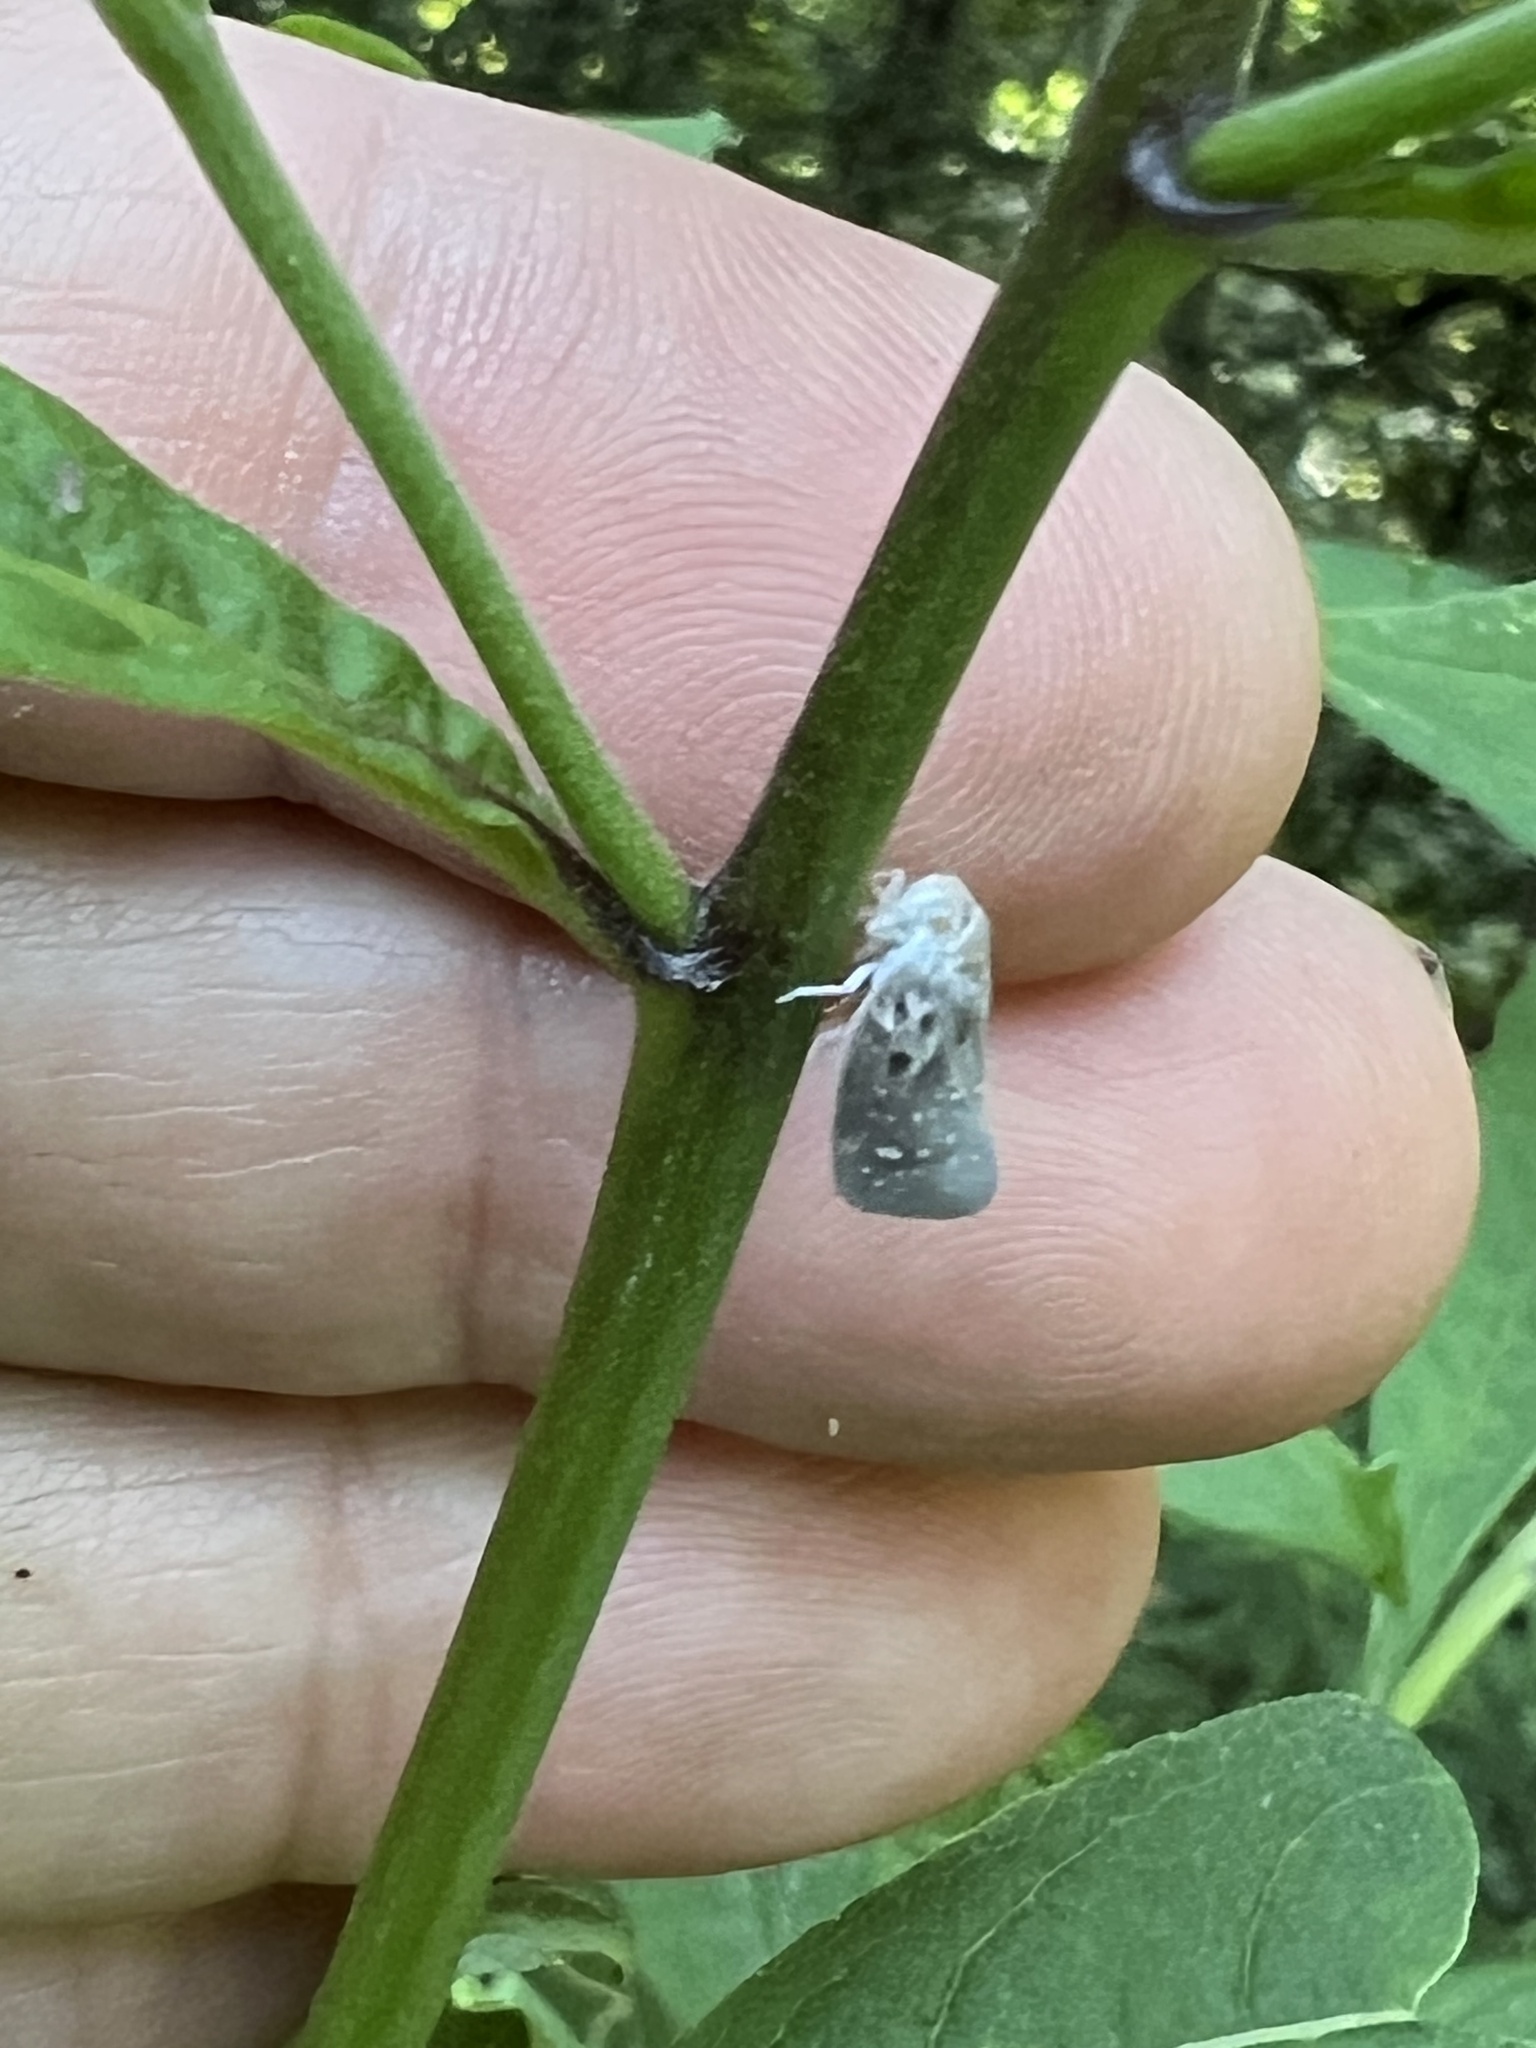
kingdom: Animalia
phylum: Arthropoda
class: Insecta
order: Hemiptera
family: Flatidae
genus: Metcalfa
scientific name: Metcalfa pruinosa
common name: Citrus flatid planthopper
